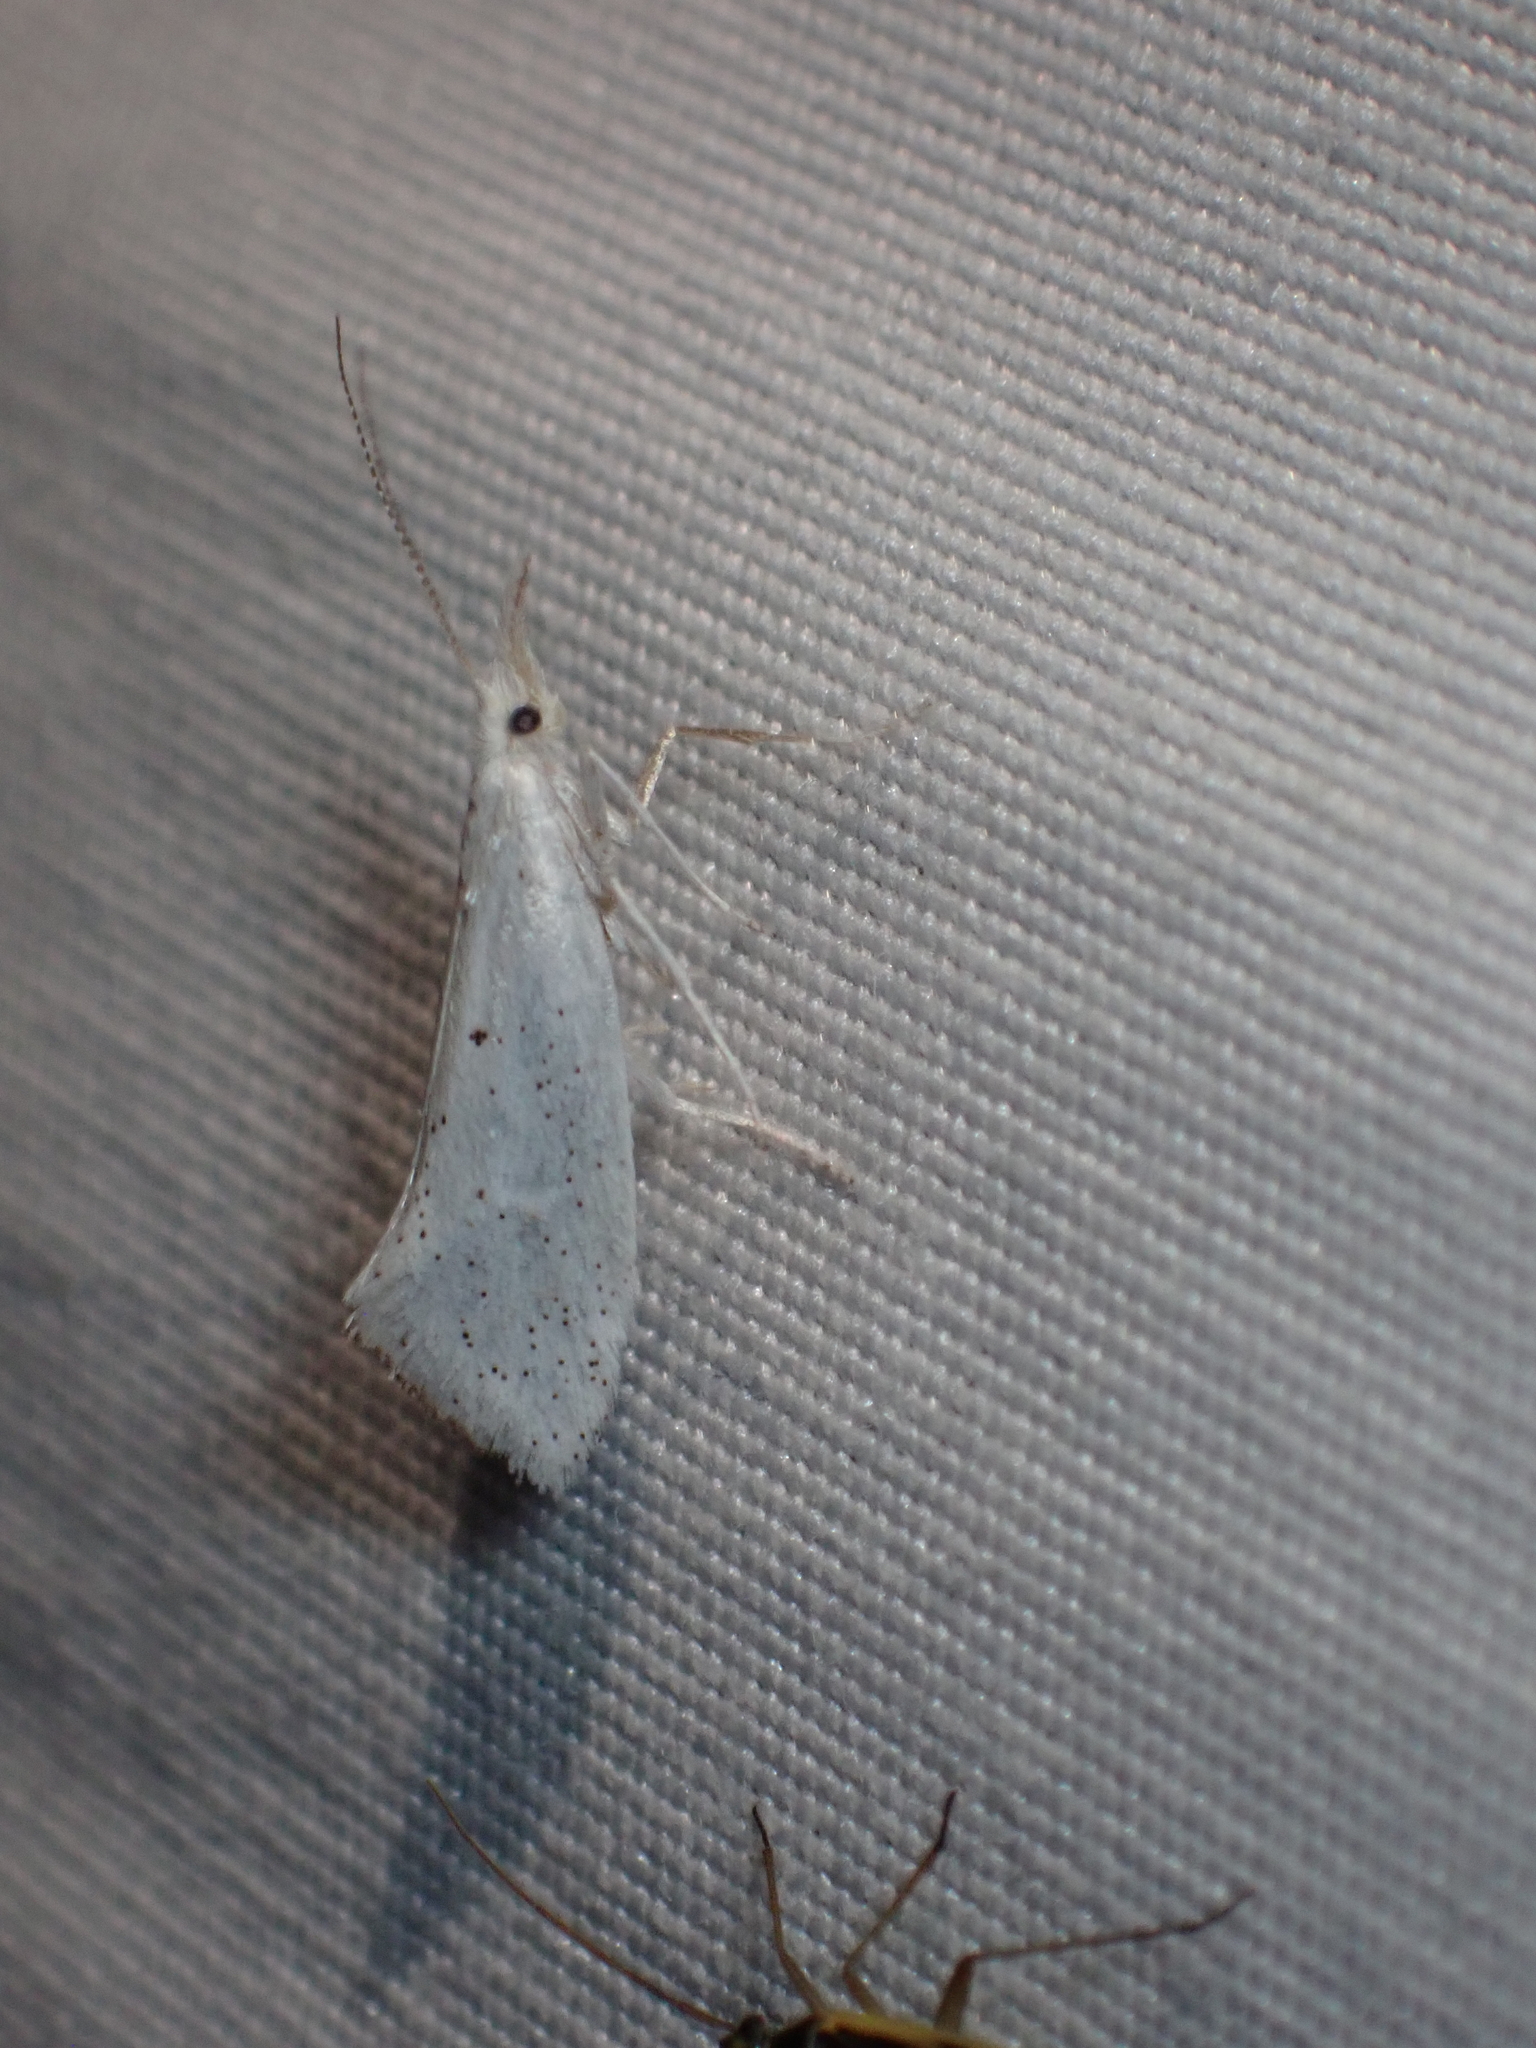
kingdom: Animalia
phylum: Arthropoda
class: Insecta
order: Lepidoptera
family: Ypsolophidae
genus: Euceratia
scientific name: Euceratia castella
